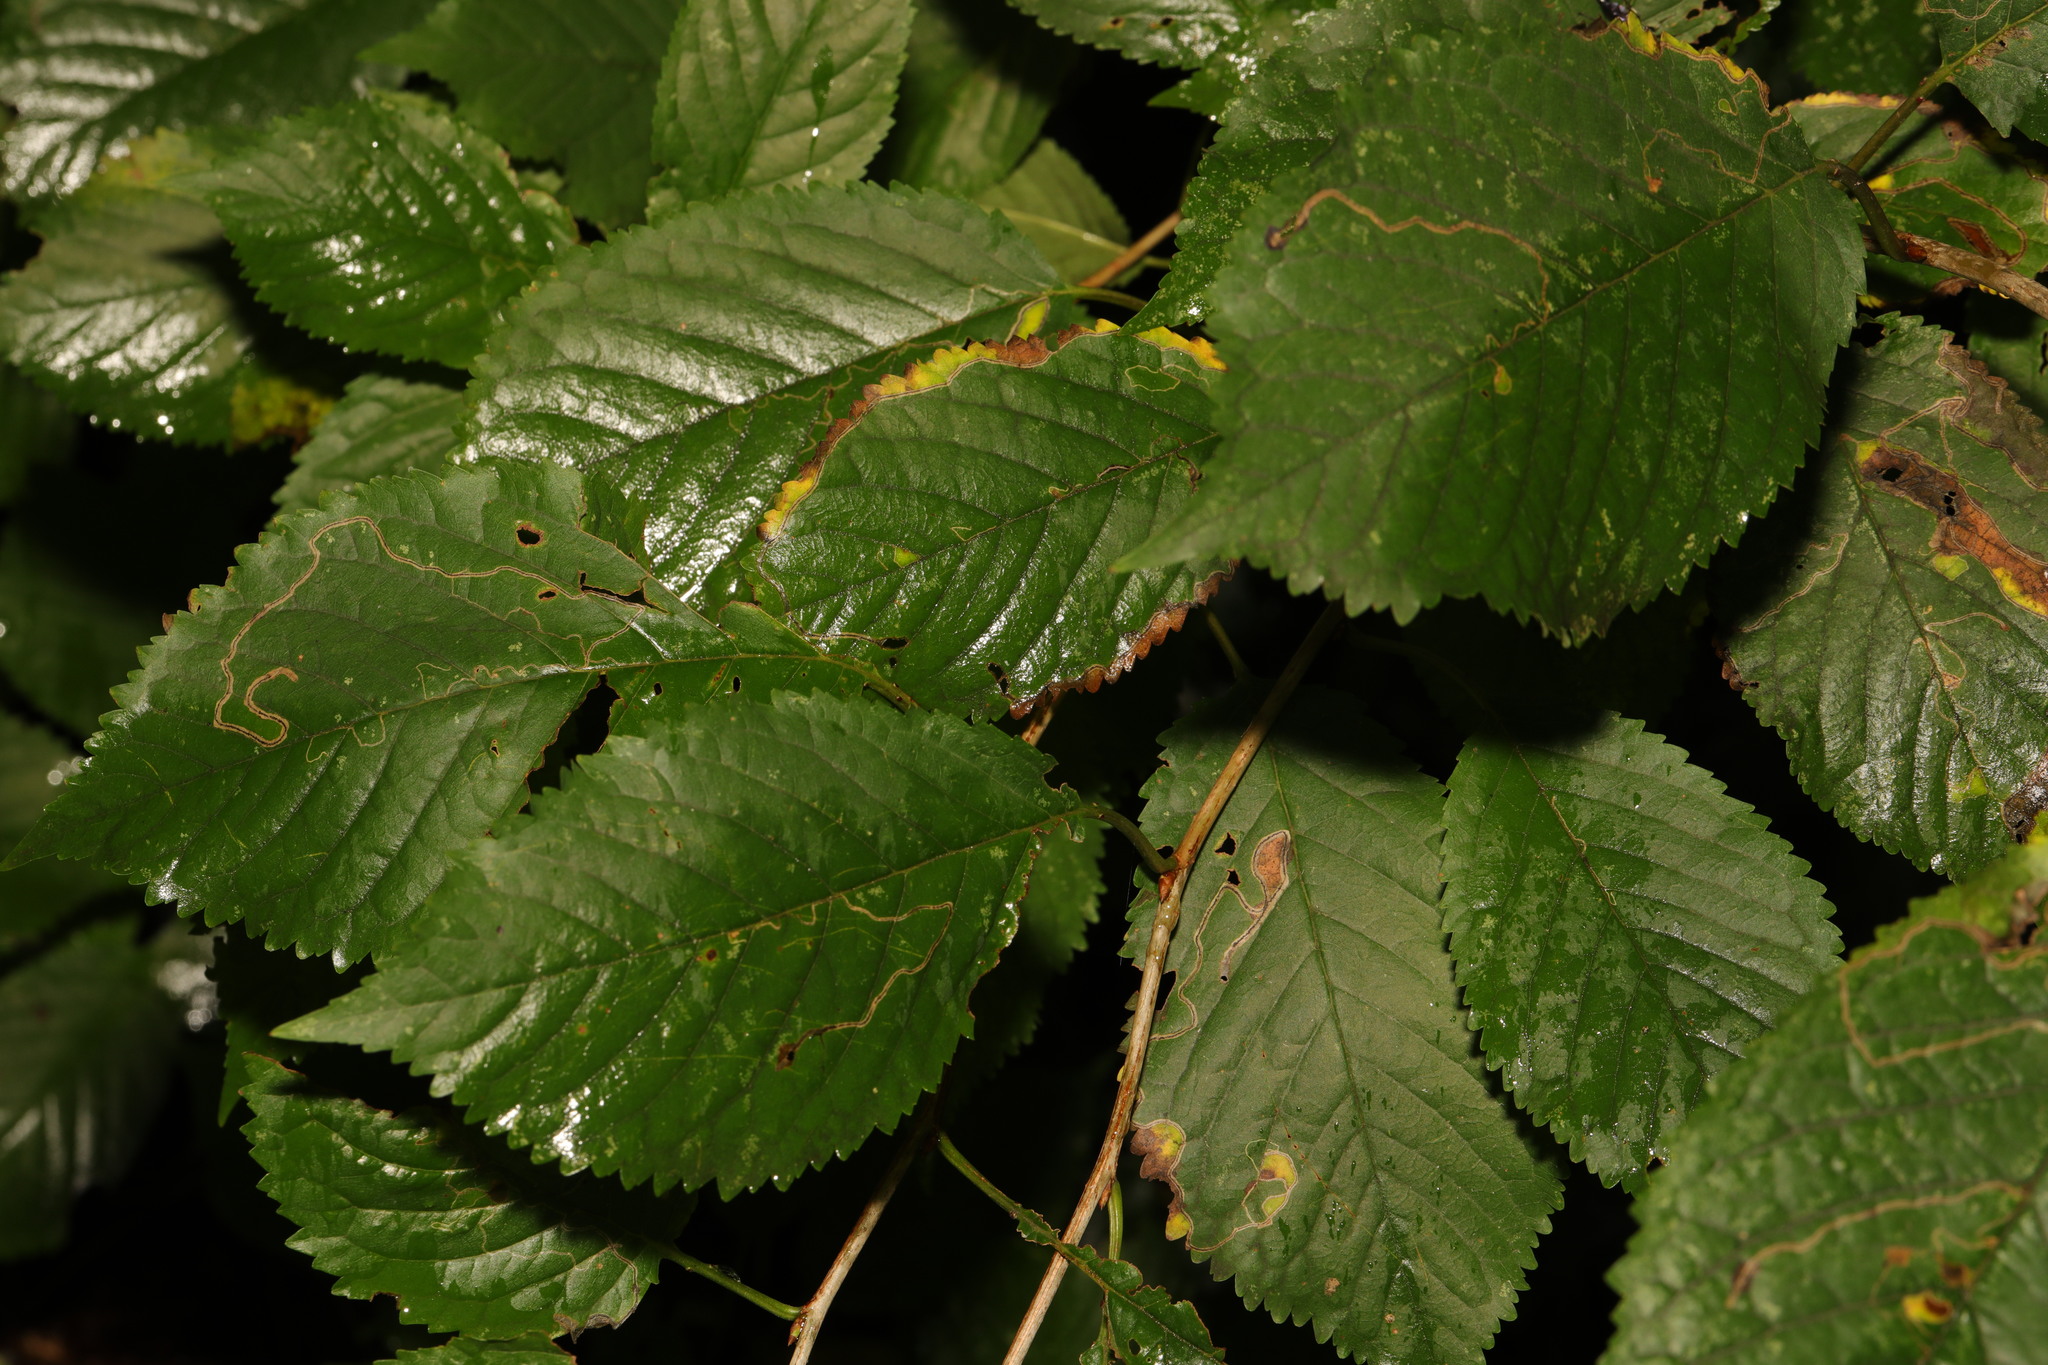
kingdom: Plantae
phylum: Tracheophyta
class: Magnoliopsida
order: Rosales
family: Rosaceae
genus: Prunus
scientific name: Prunus avium
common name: Sweet cherry
